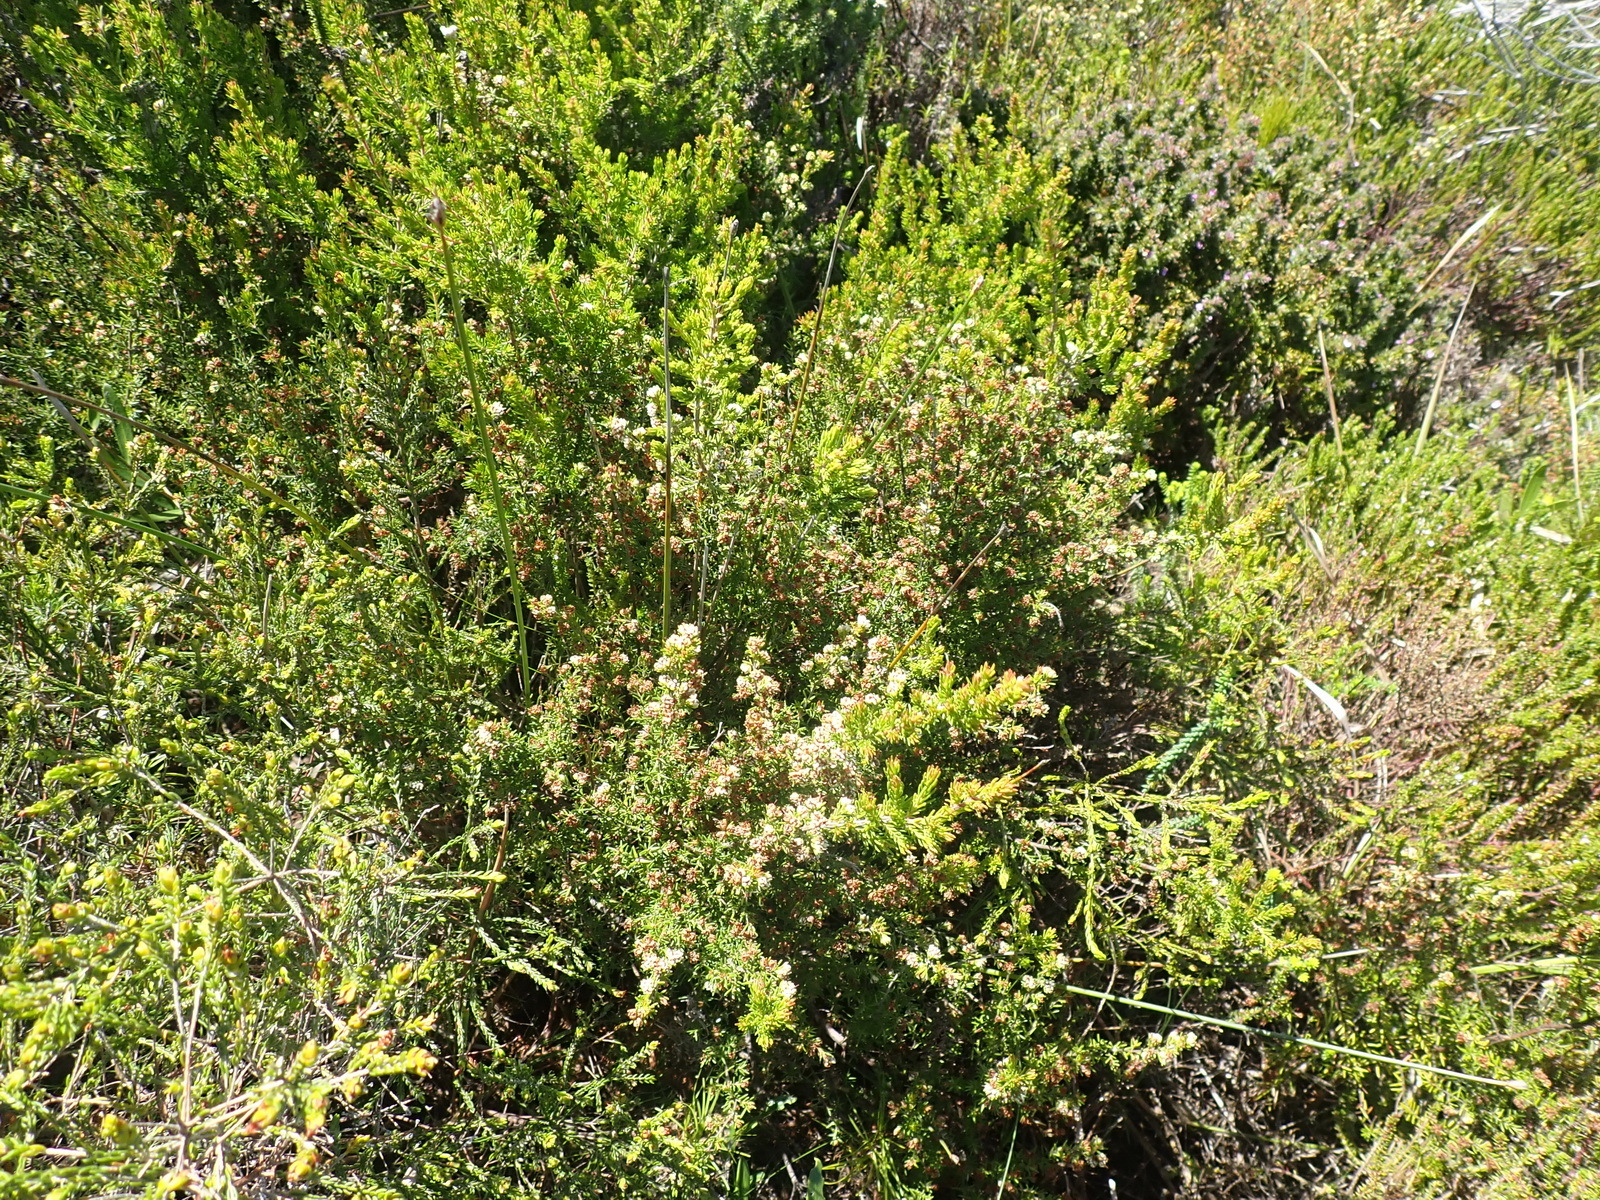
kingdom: Plantae
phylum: Tracheophyta
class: Magnoliopsida
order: Ericales
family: Ericaceae
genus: Erica
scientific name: Erica glumiflora
